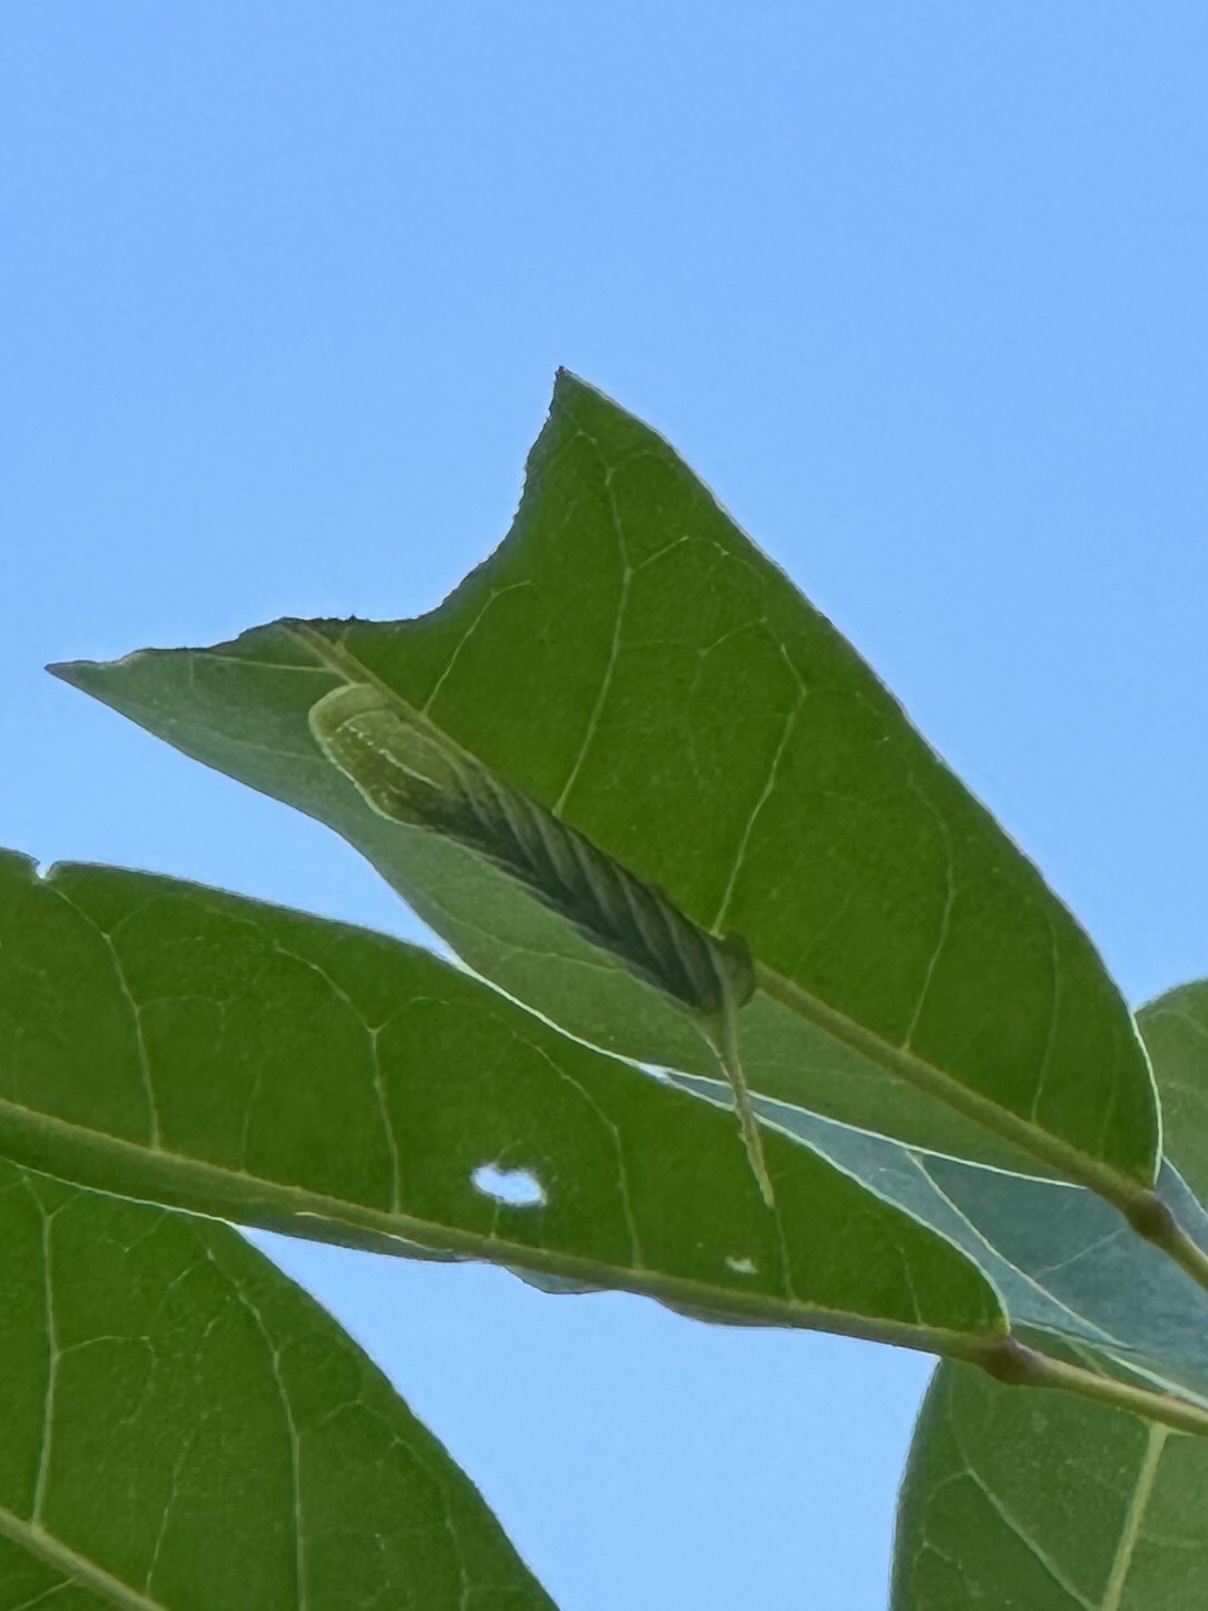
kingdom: Animalia
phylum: Arthropoda
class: Insecta
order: Lepidoptera
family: Sphingidae
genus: Manduca
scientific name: Manduca rustica
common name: Rustic sphinx
